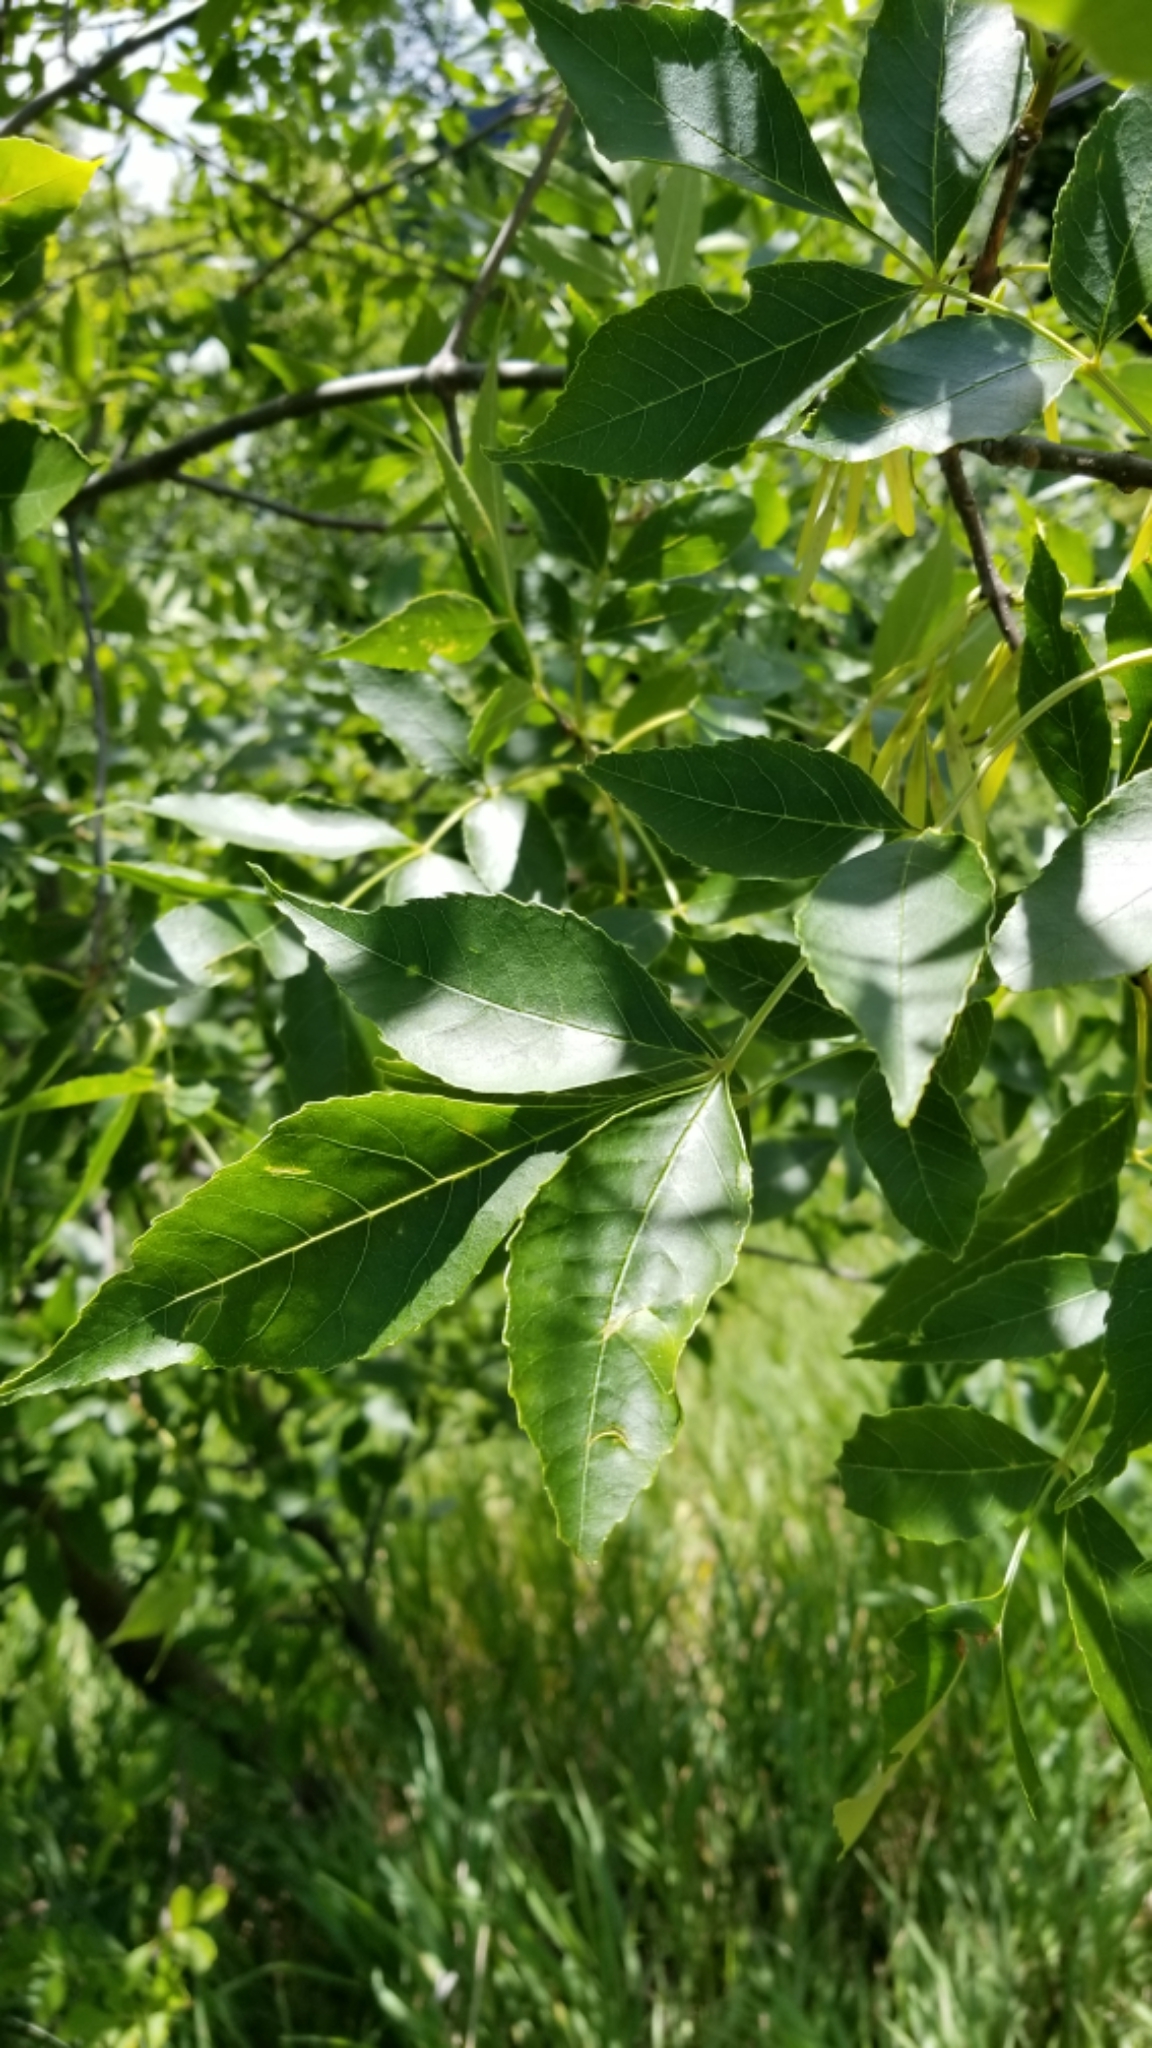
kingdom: Plantae
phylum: Tracheophyta
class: Magnoliopsida
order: Lamiales
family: Oleaceae
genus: Fraxinus
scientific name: Fraxinus pennsylvanica
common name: Green ash
